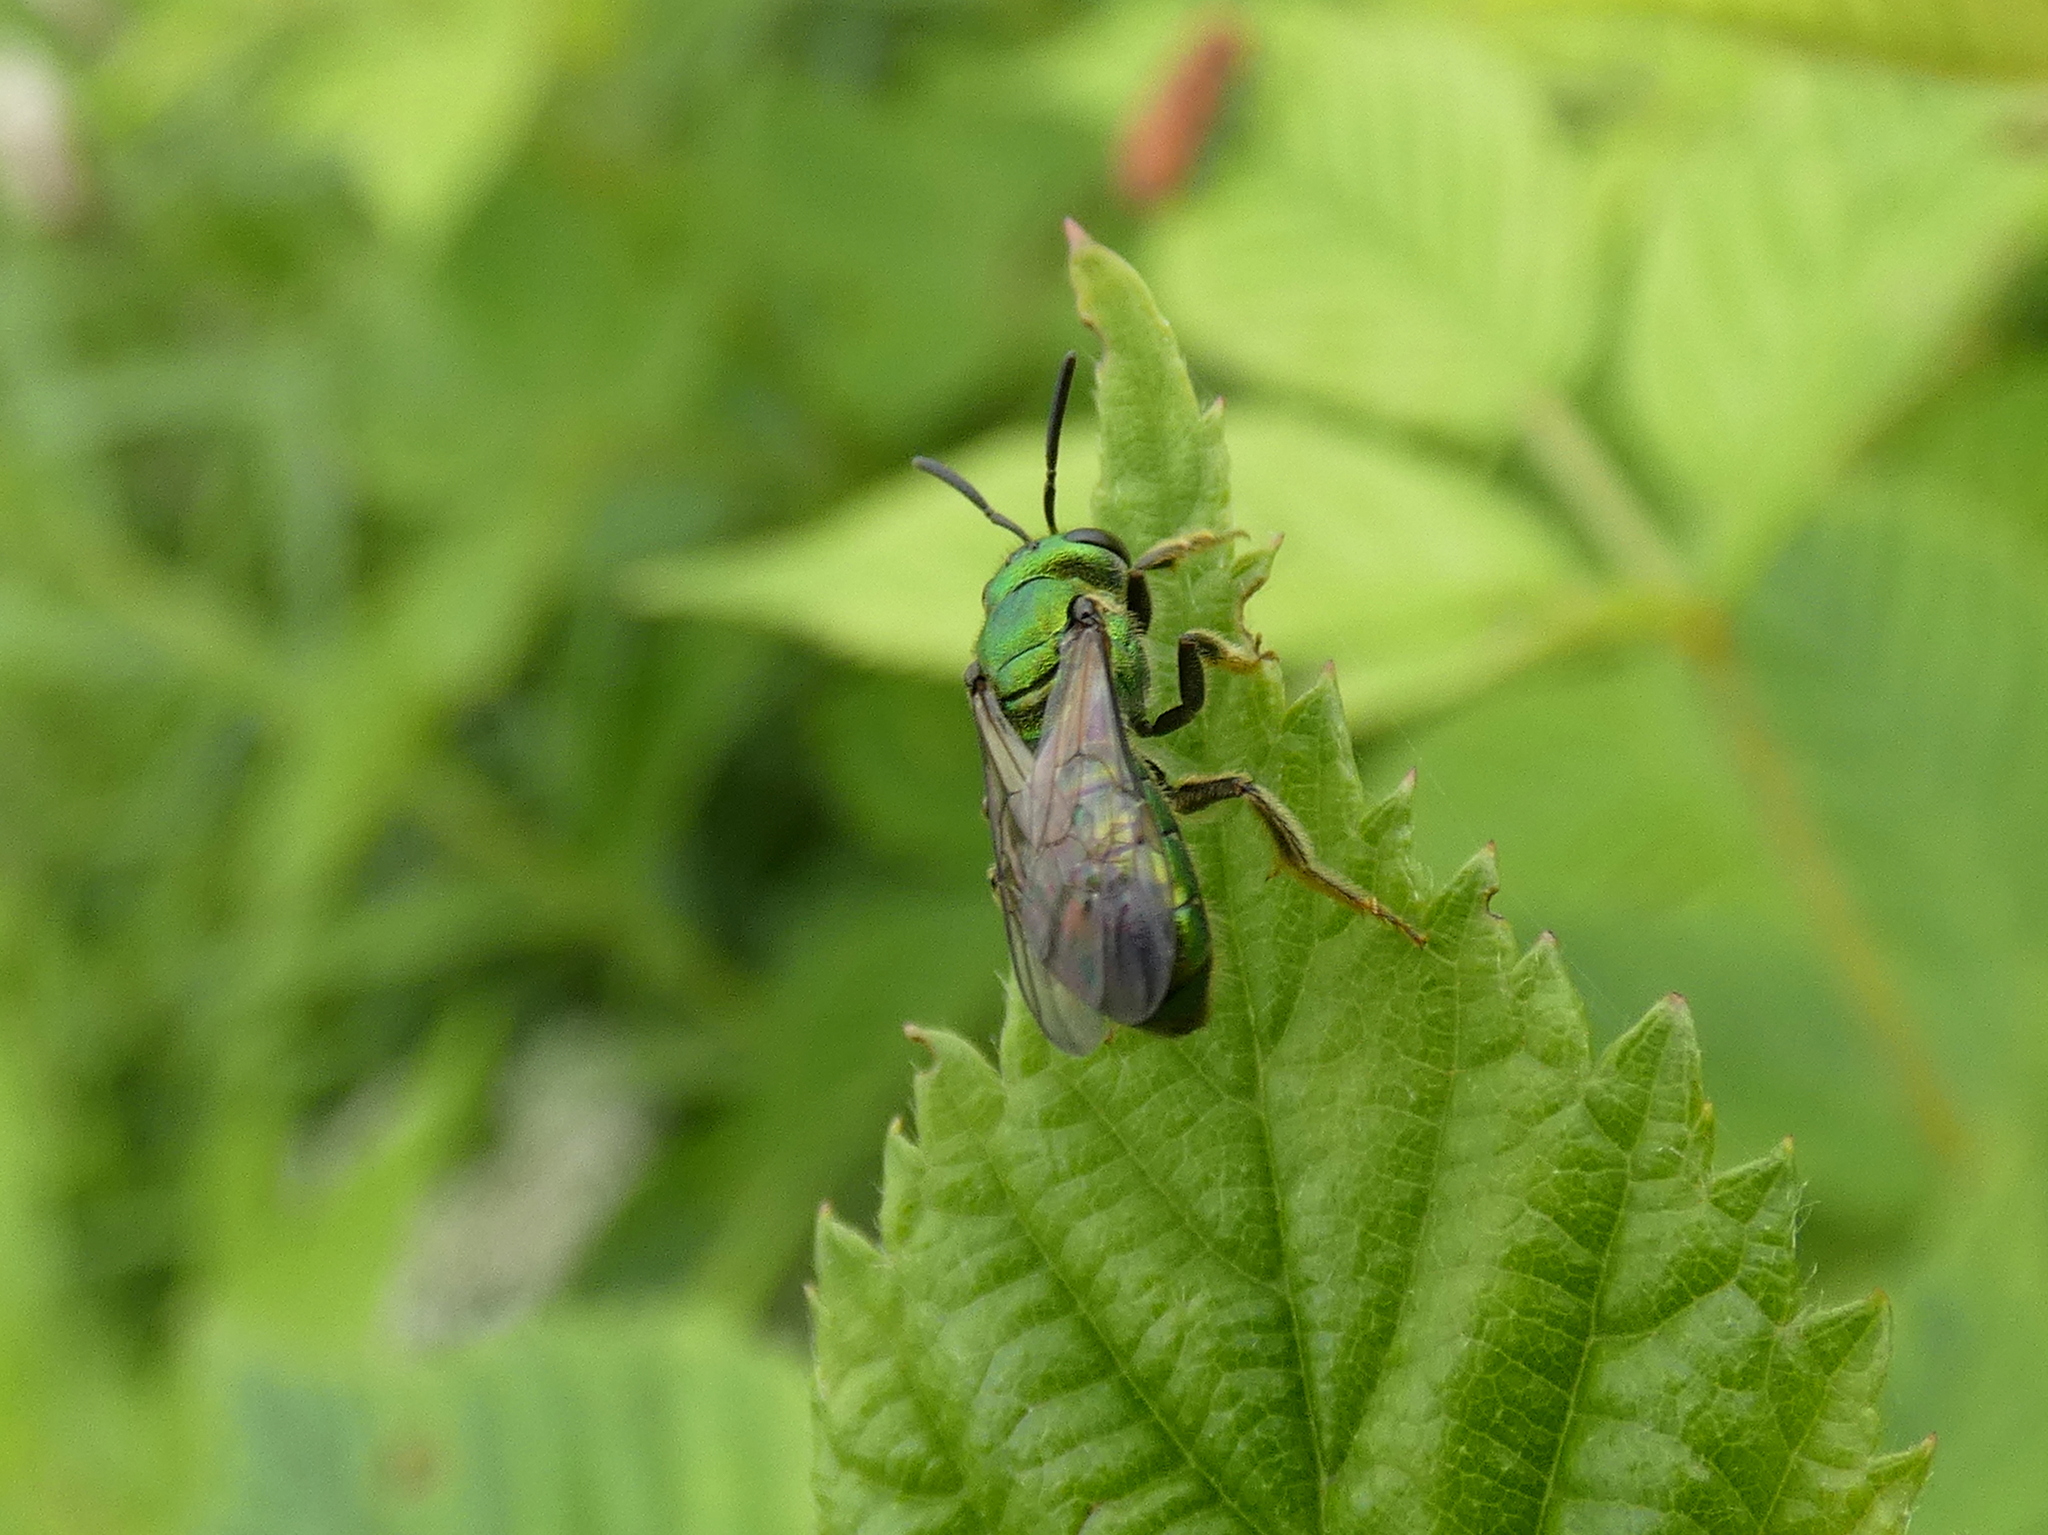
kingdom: Animalia
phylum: Arthropoda
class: Insecta
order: Hymenoptera
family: Halictidae
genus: Augochlora
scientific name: Augochlora pura
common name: Pure green sweat bee
